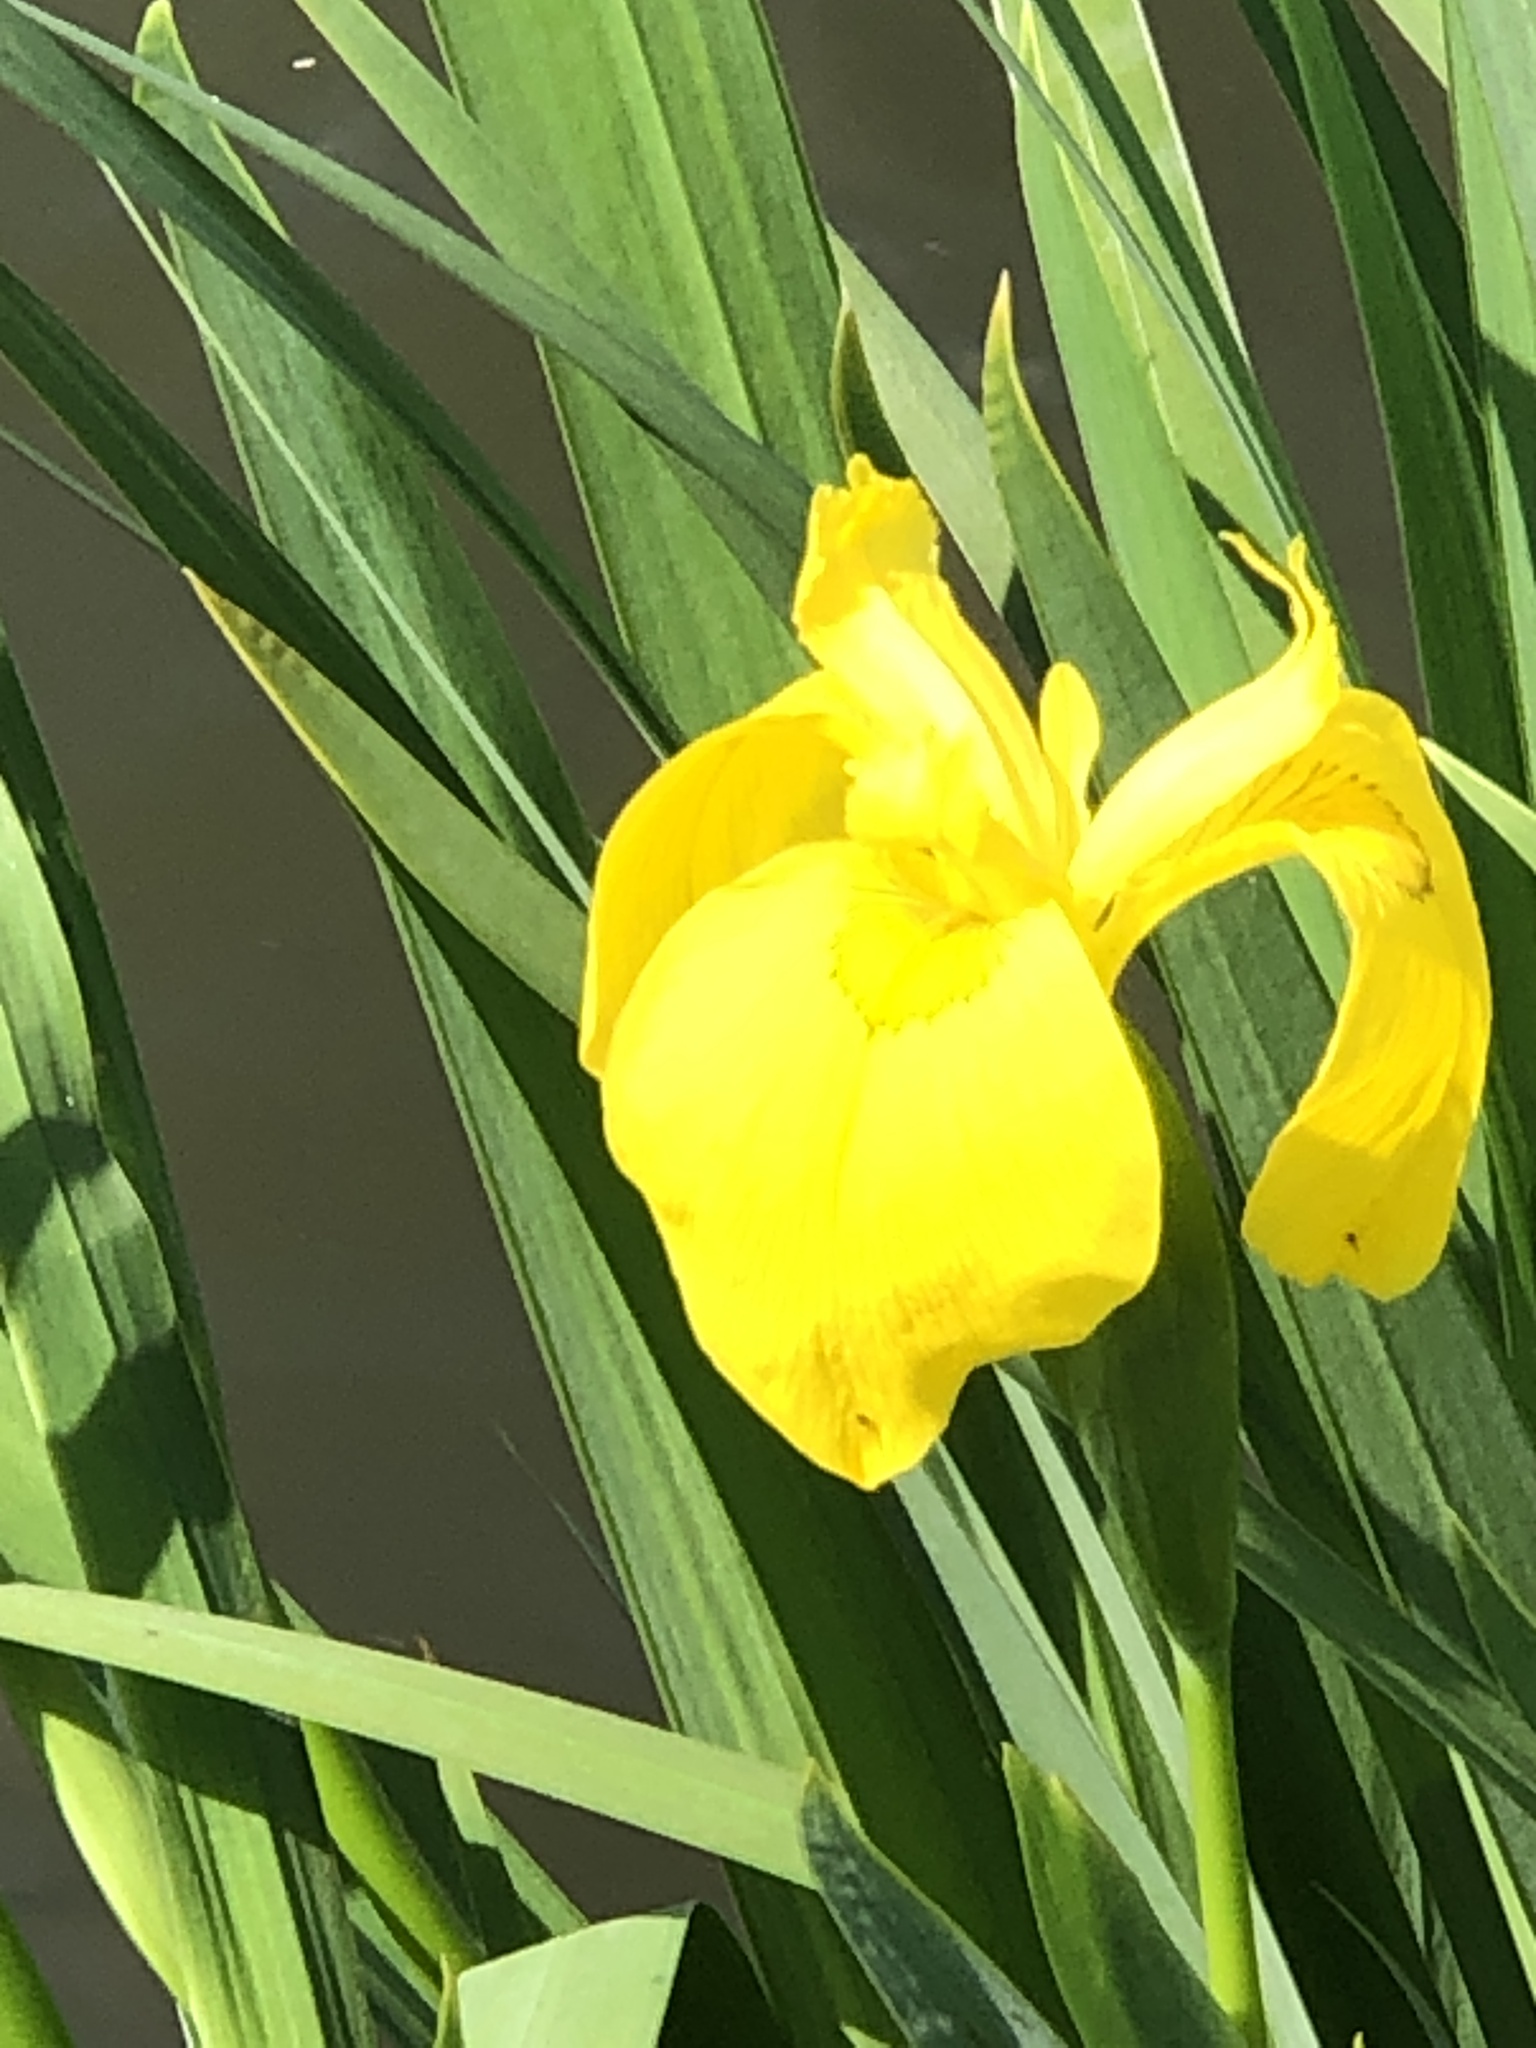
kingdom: Plantae
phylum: Tracheophyta
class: Liliopsida
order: Asparagales
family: Iridaceae
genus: Iris
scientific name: Iris pseudacorus
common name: Yellow flag
